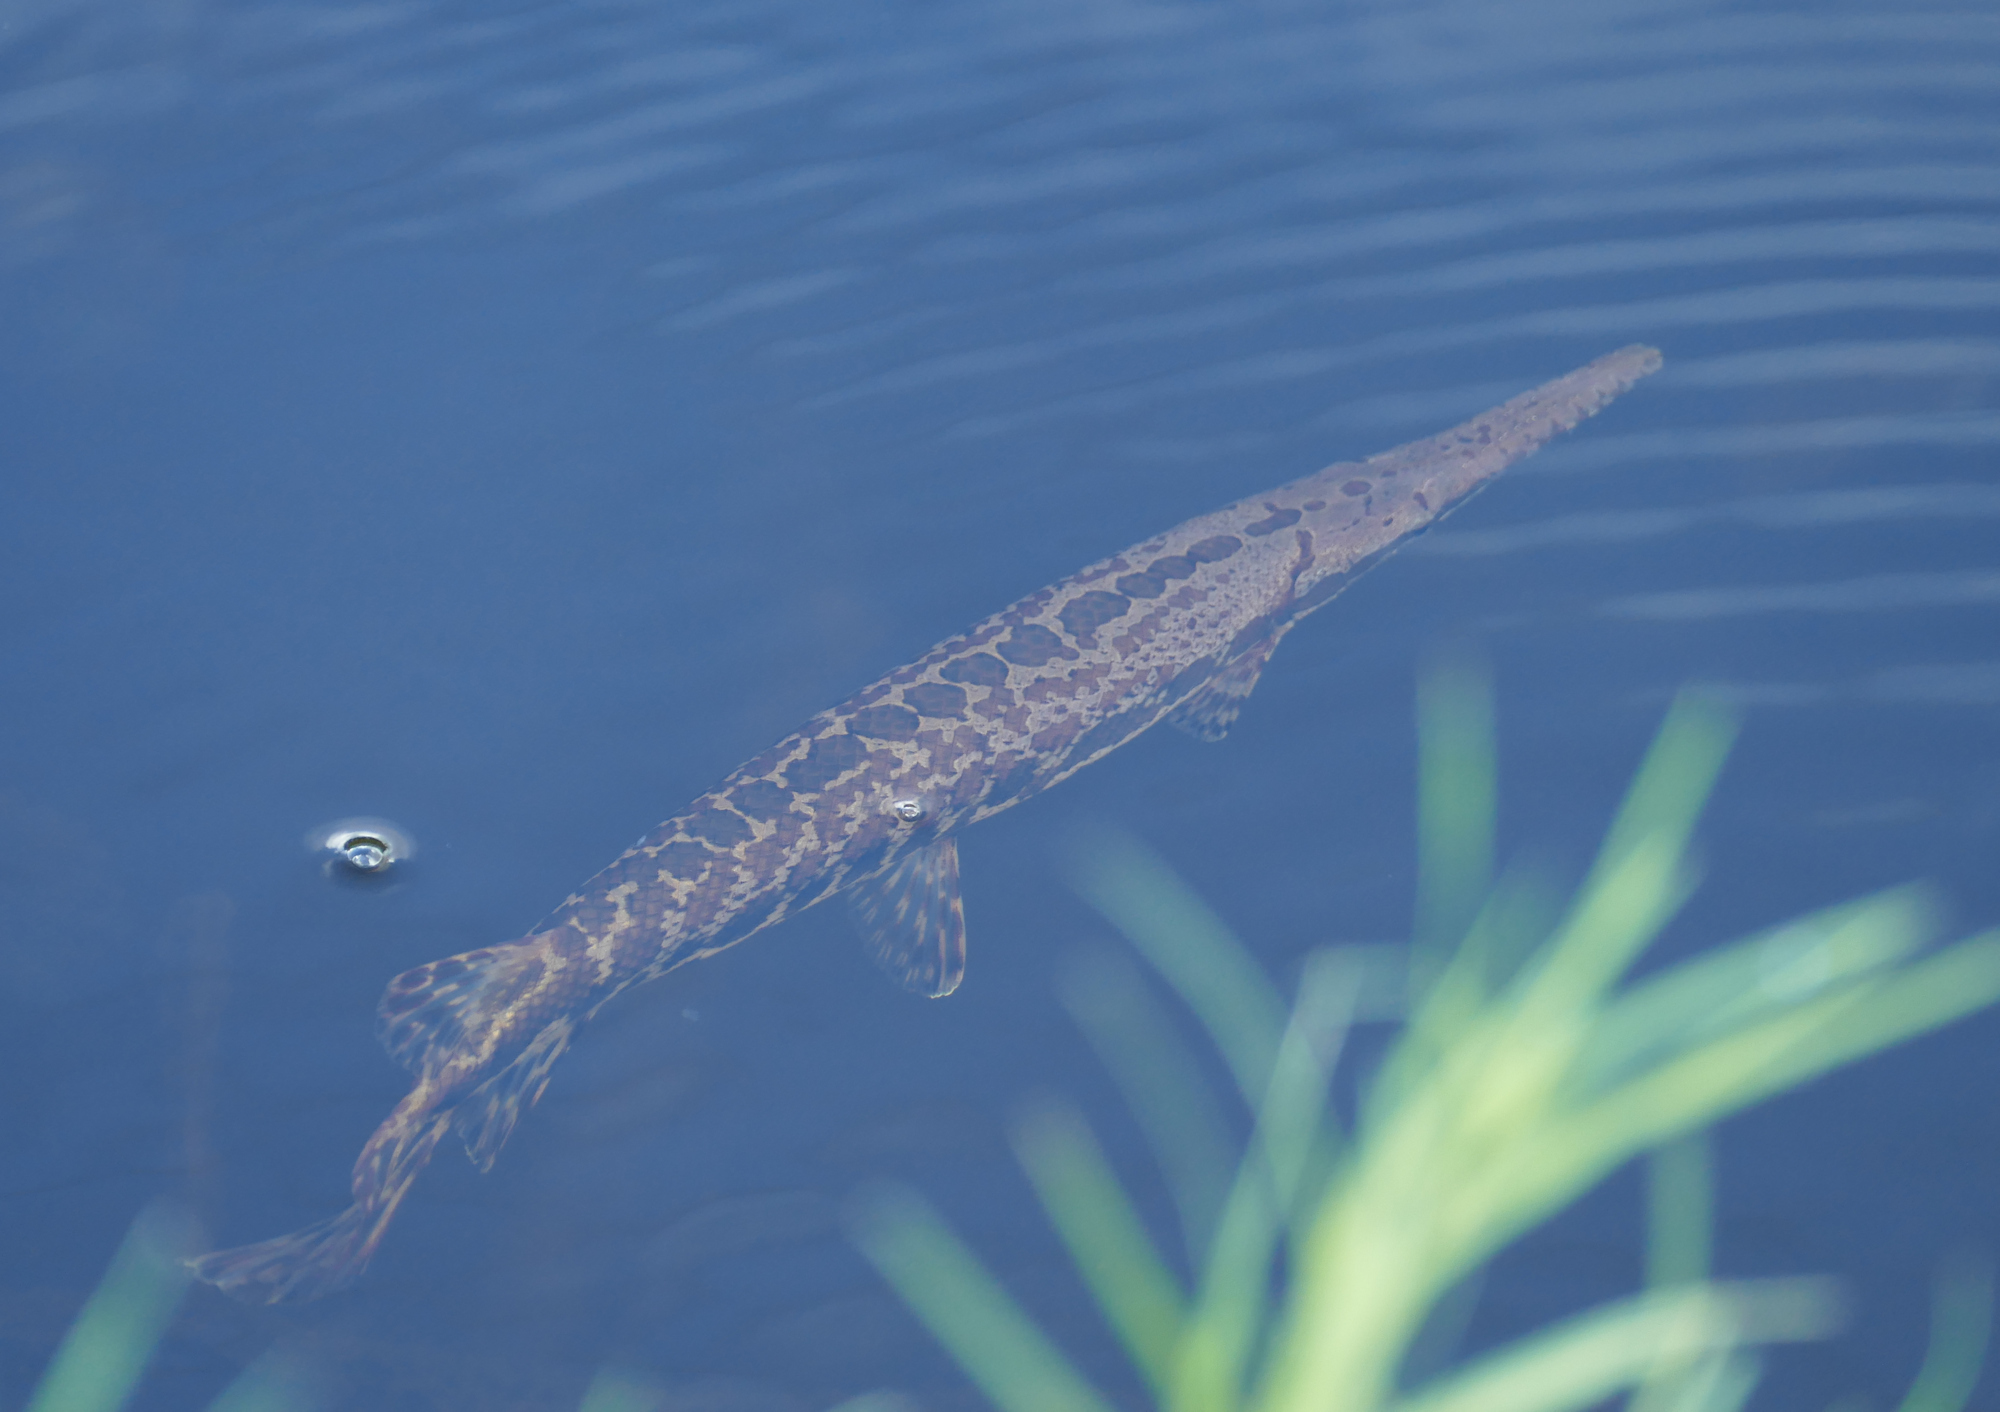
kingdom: Animalia
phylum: Chordata
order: Lepisosteiformes
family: Lepisosteidae
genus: Lepisosteus
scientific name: Lepisosteus oculatus
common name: Spotted gar
